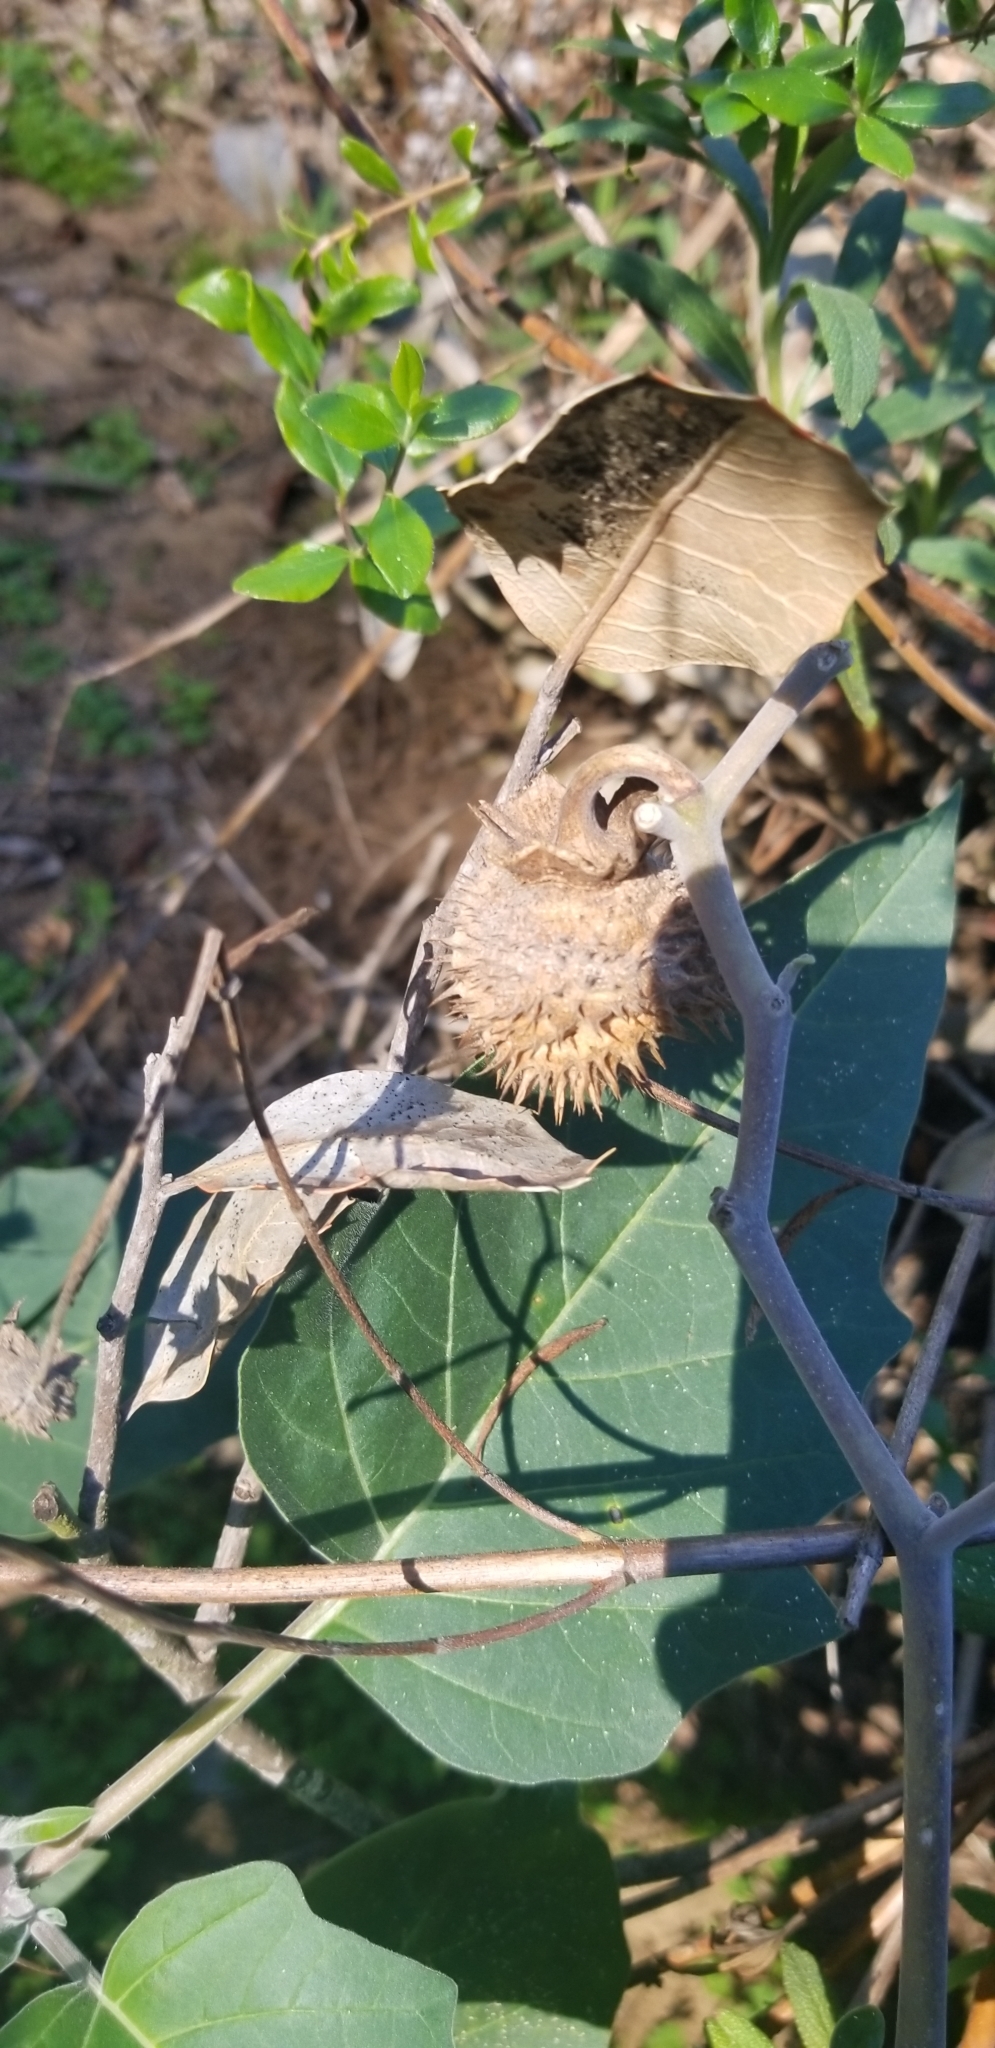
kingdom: Plantae
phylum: Tracheophyta
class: Magnoliopsida
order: Solanales
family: Solanaceae
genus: Datura
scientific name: Datura wrightii
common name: Sacred thorn-apple
